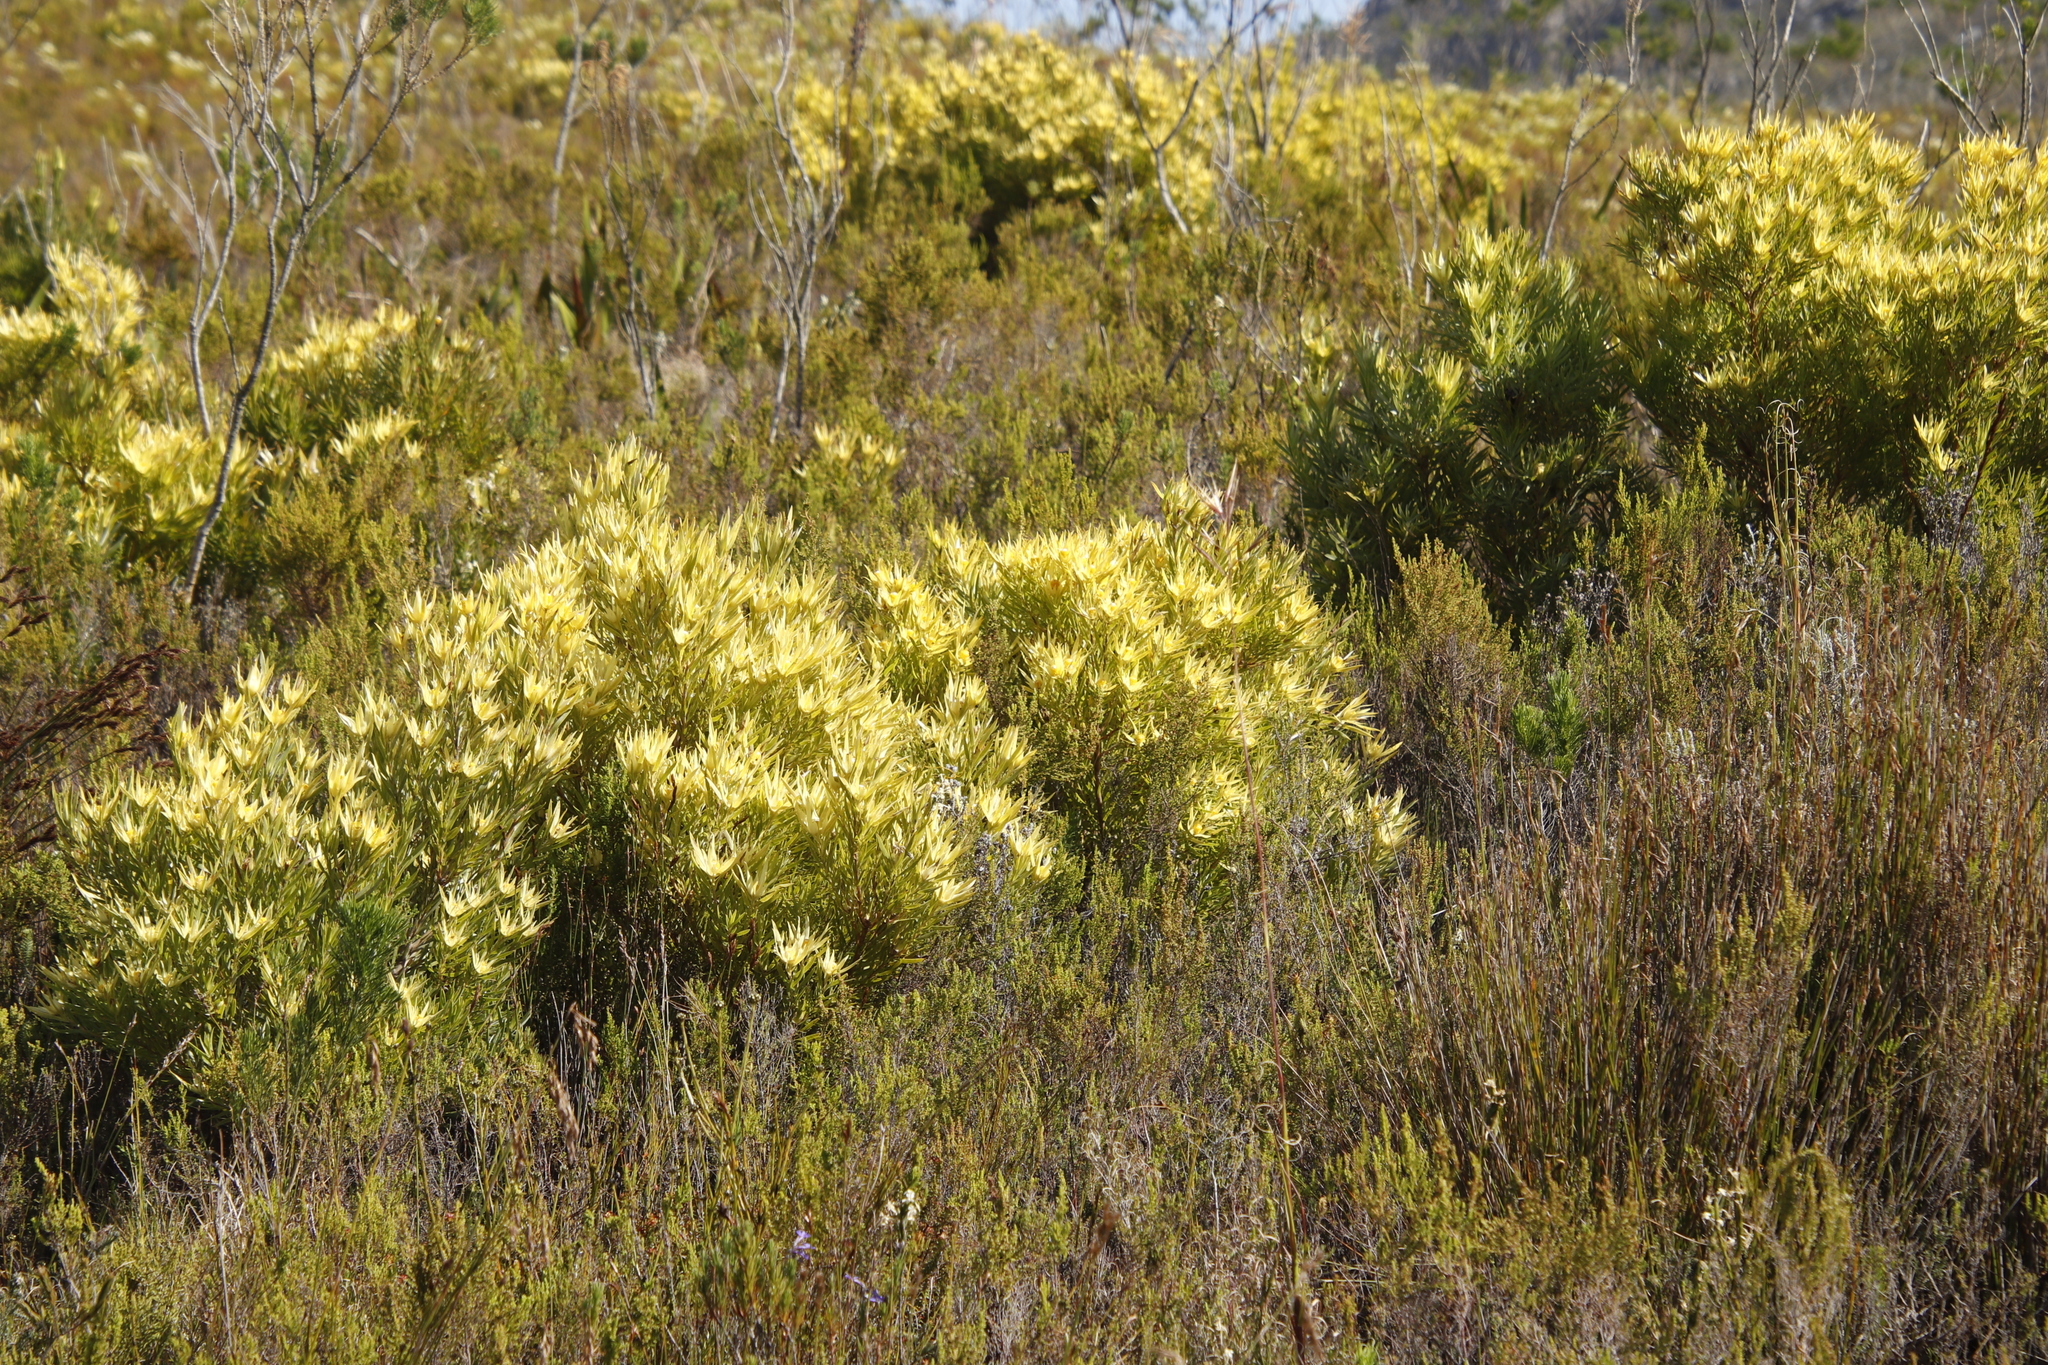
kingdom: Plantae
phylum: Tracheophyta
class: Magnoliopsida
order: Proteales
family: Proteaceae
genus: Leucadendron
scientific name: Leucadendron xanthoconus
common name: Sickle-leaf conebush
